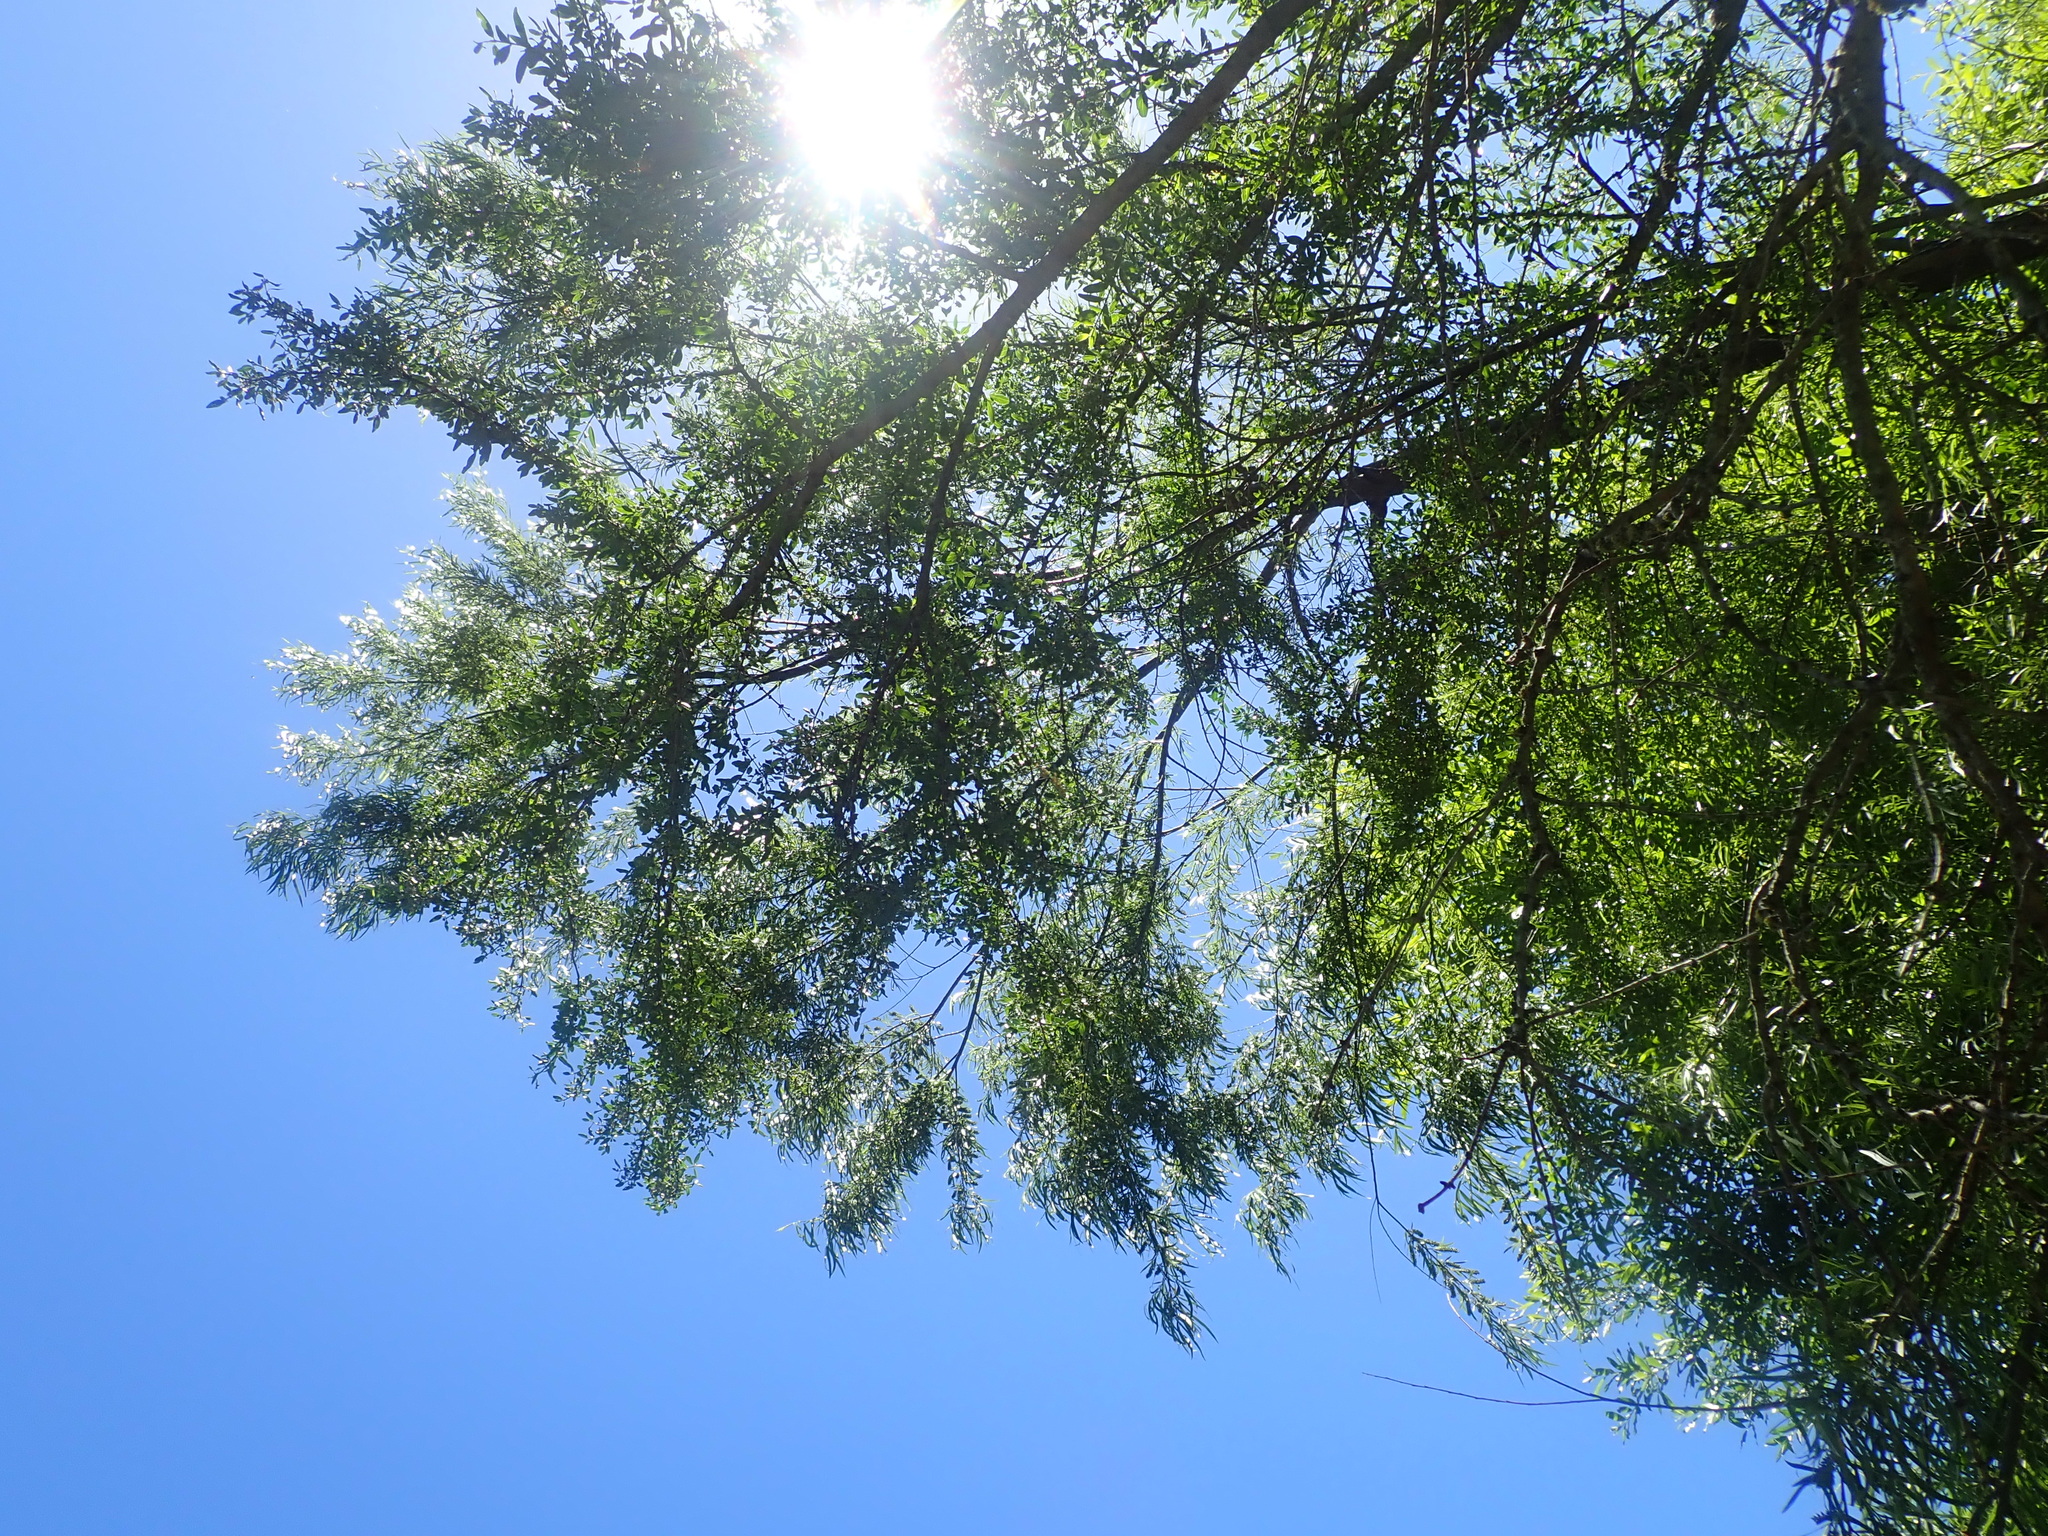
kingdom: Plantae
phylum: Tracheophyta
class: Magnoliopsida
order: Malpighiales
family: Salicaceae
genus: Salix
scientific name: Salix humboldtiana
